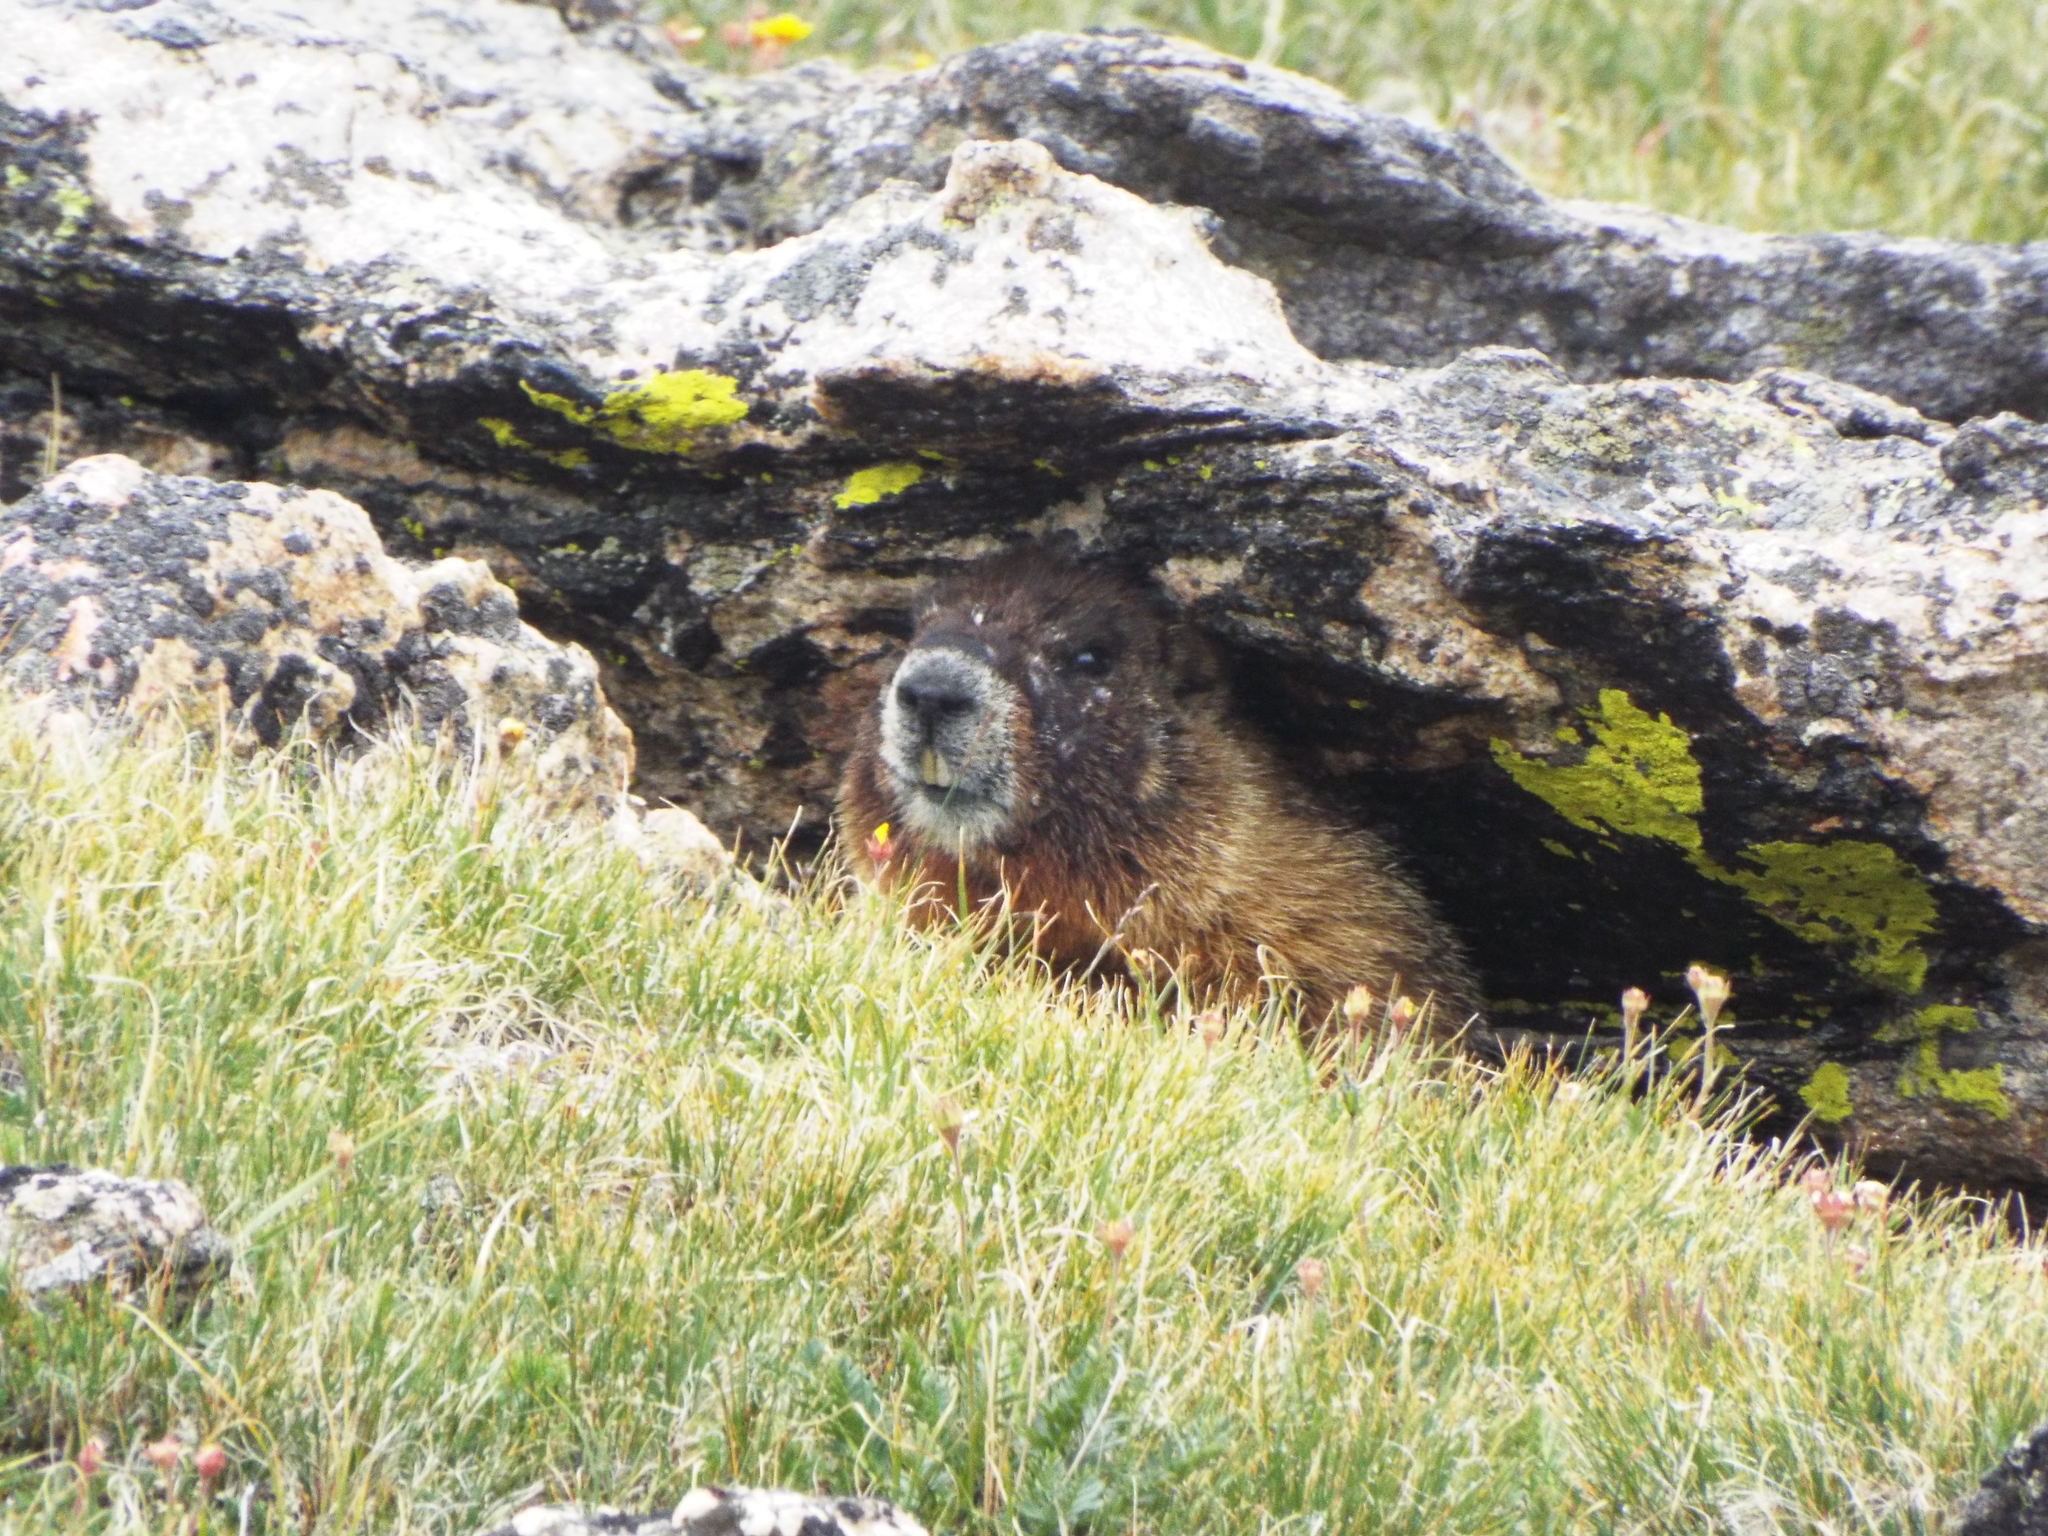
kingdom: Animalia
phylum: Chordata
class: Mammalia
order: Rodentia
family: Sciuridae
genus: Marmota
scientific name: Marmota flaviventris
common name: Yellow-bellied marmot
